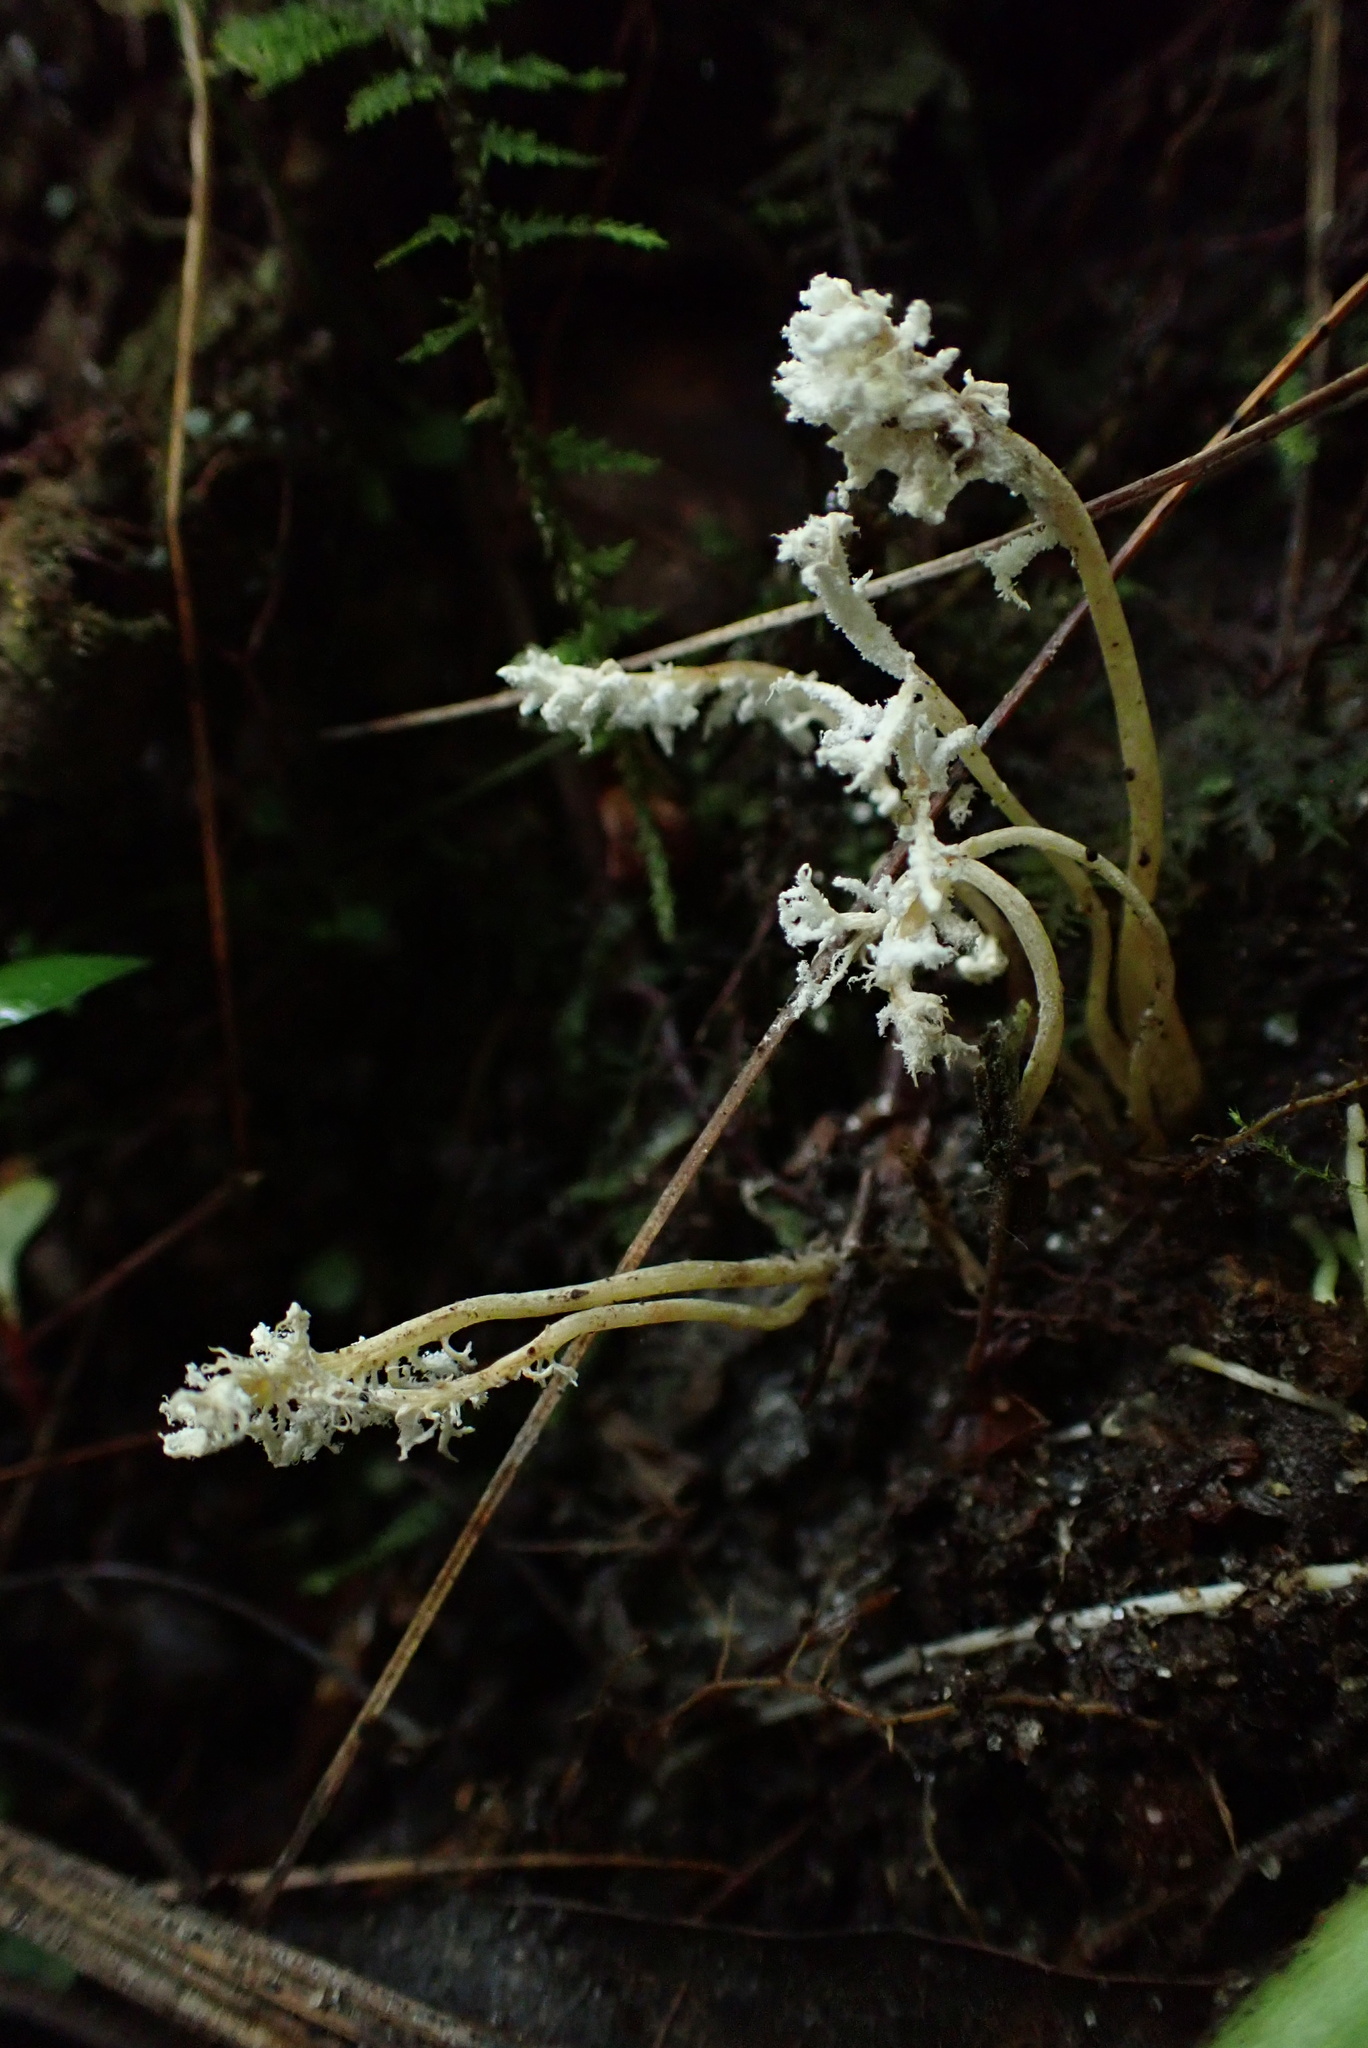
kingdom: Fungi
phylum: Ascomycota
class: Sordariomycetes
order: Hypocreales
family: Cordycipitaceae
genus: Cordyceps
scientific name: Cordyceps tenuipes
